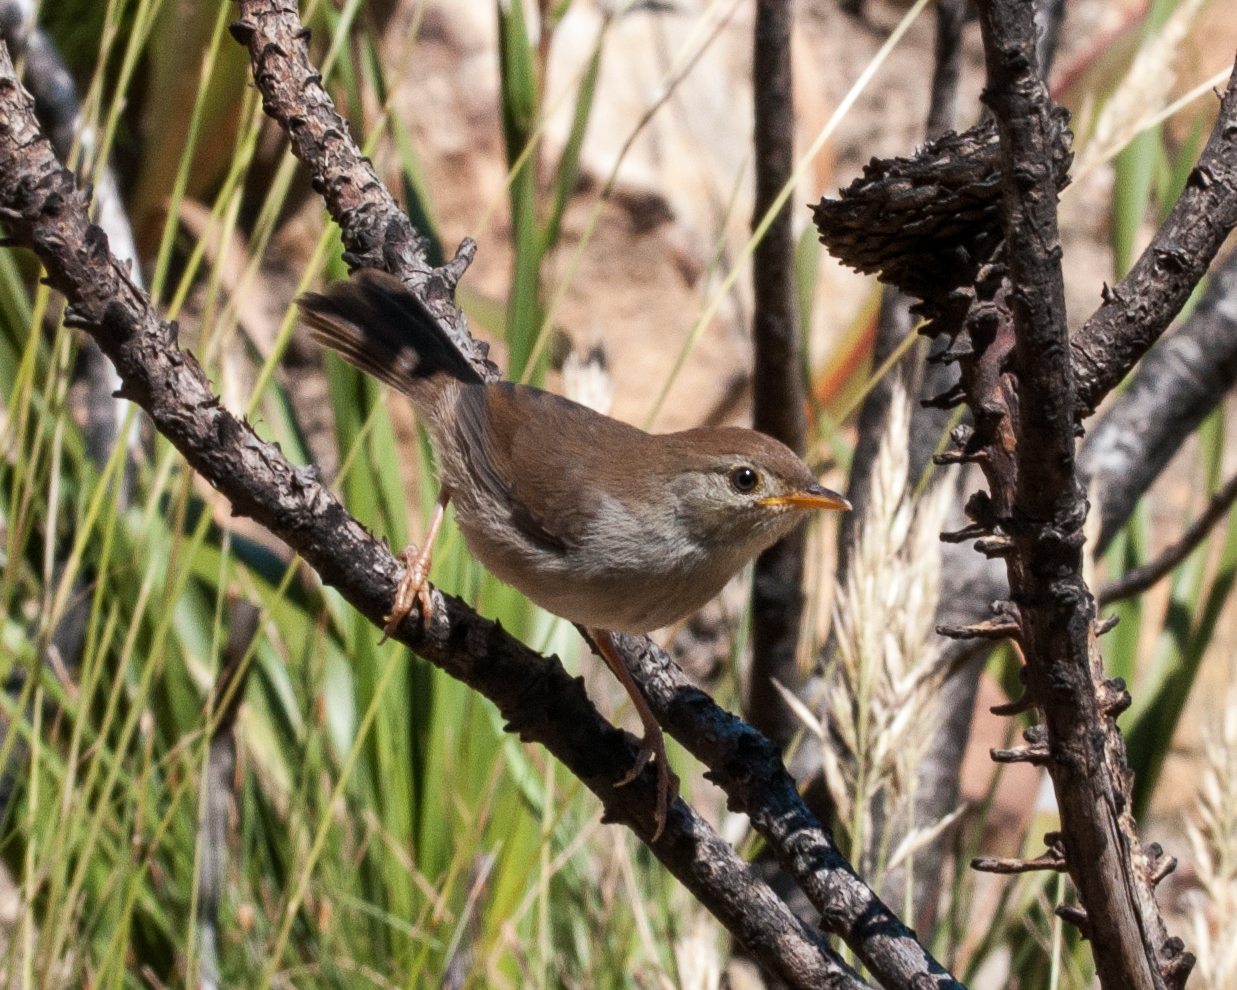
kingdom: Animalia
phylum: Chordata
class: Aves
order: Passeriformes
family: Cisticolidae
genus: Cisticola
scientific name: Cisticola fulvicapilla
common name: Neddicky
